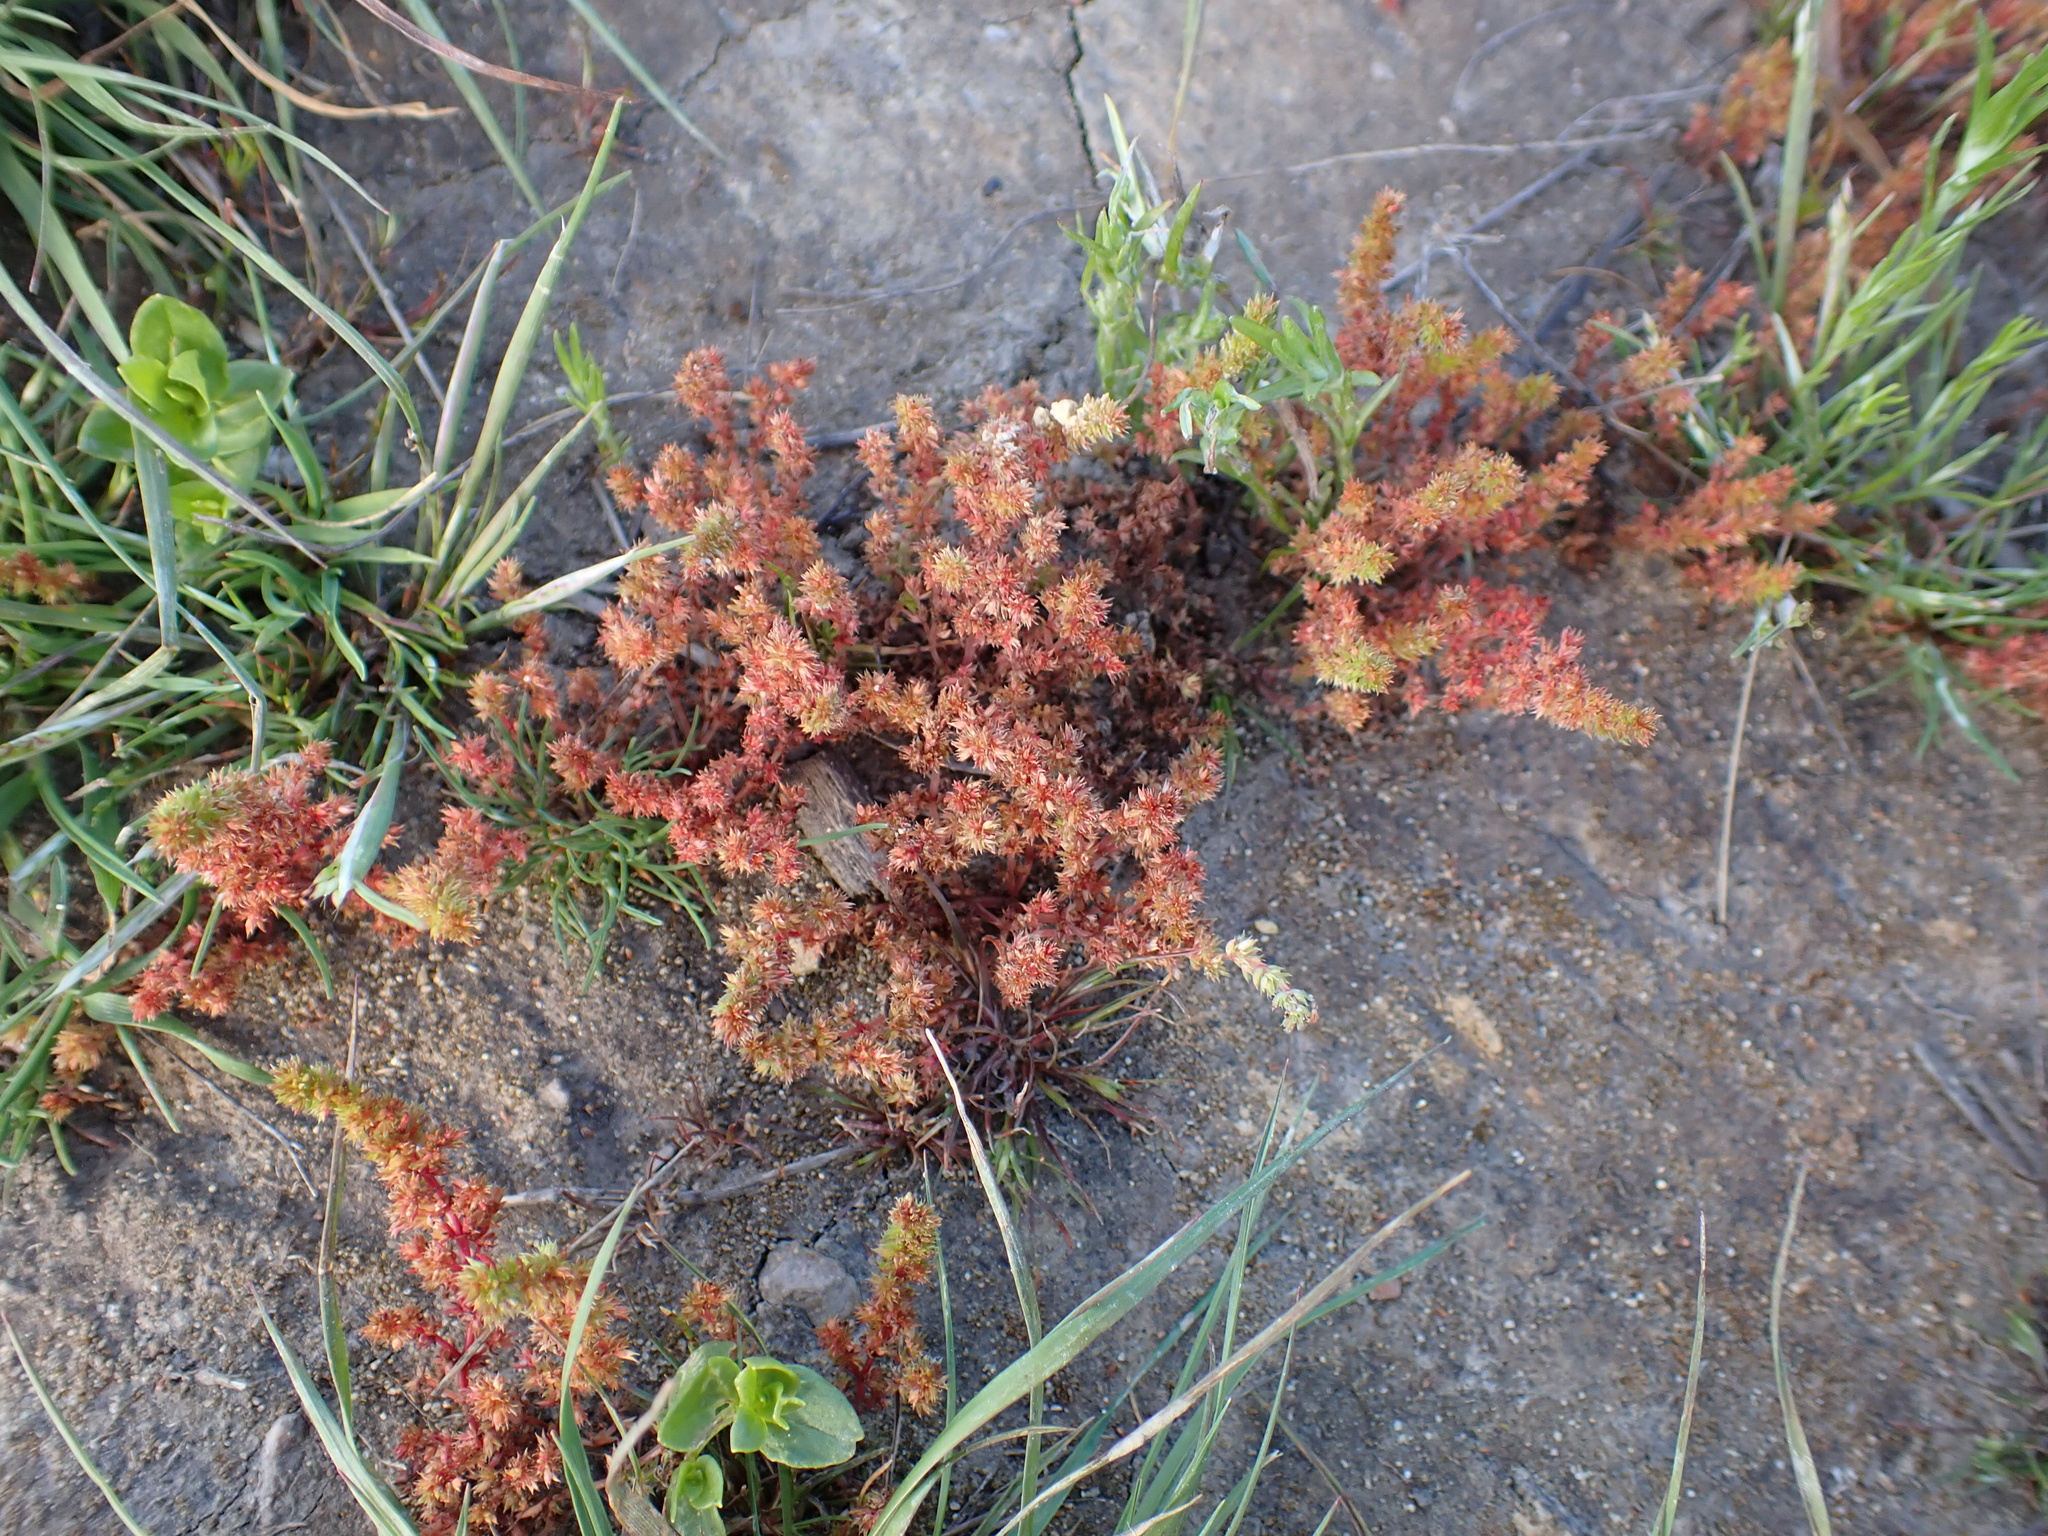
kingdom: Plantae
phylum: Tracheophyta
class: Magnoliopsida
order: Saxifragales
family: Crassulaceae
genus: Crassula
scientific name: Crassula tillaea
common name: Mossy stonecrop
